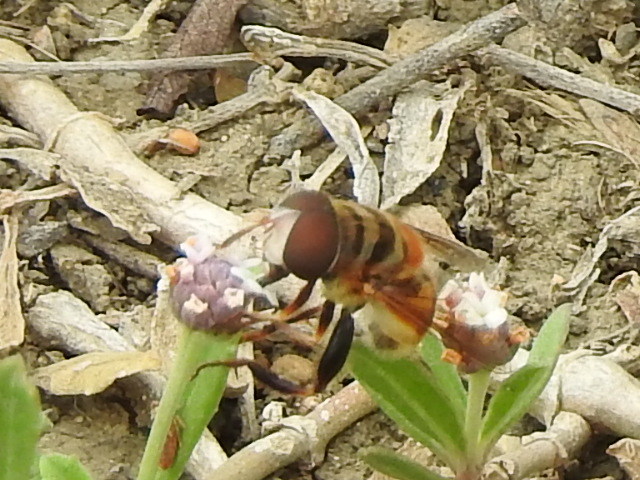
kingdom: Animalia
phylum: Arthropoda
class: Insecta
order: Diptera
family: Syrphidae
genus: Palpada
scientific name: Palpada vinetorum
